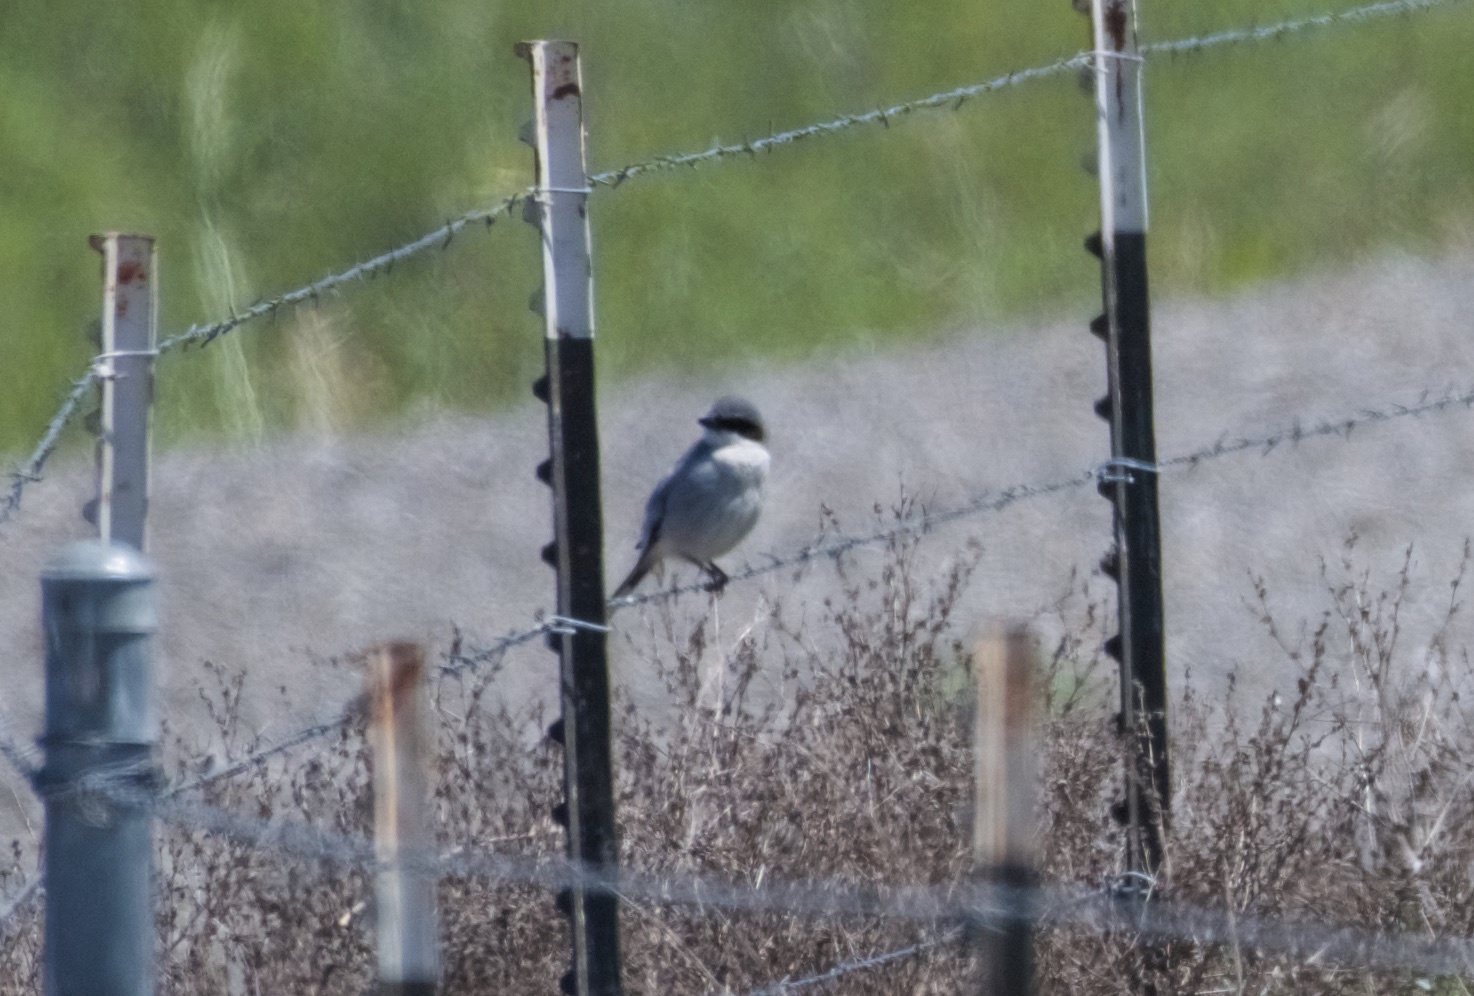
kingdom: Animalia
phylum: Chordata
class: Aves
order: Passeriformes
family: Laniidae
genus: Lanius
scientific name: Lanius ludovicianus
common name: Loggerhead shrike
